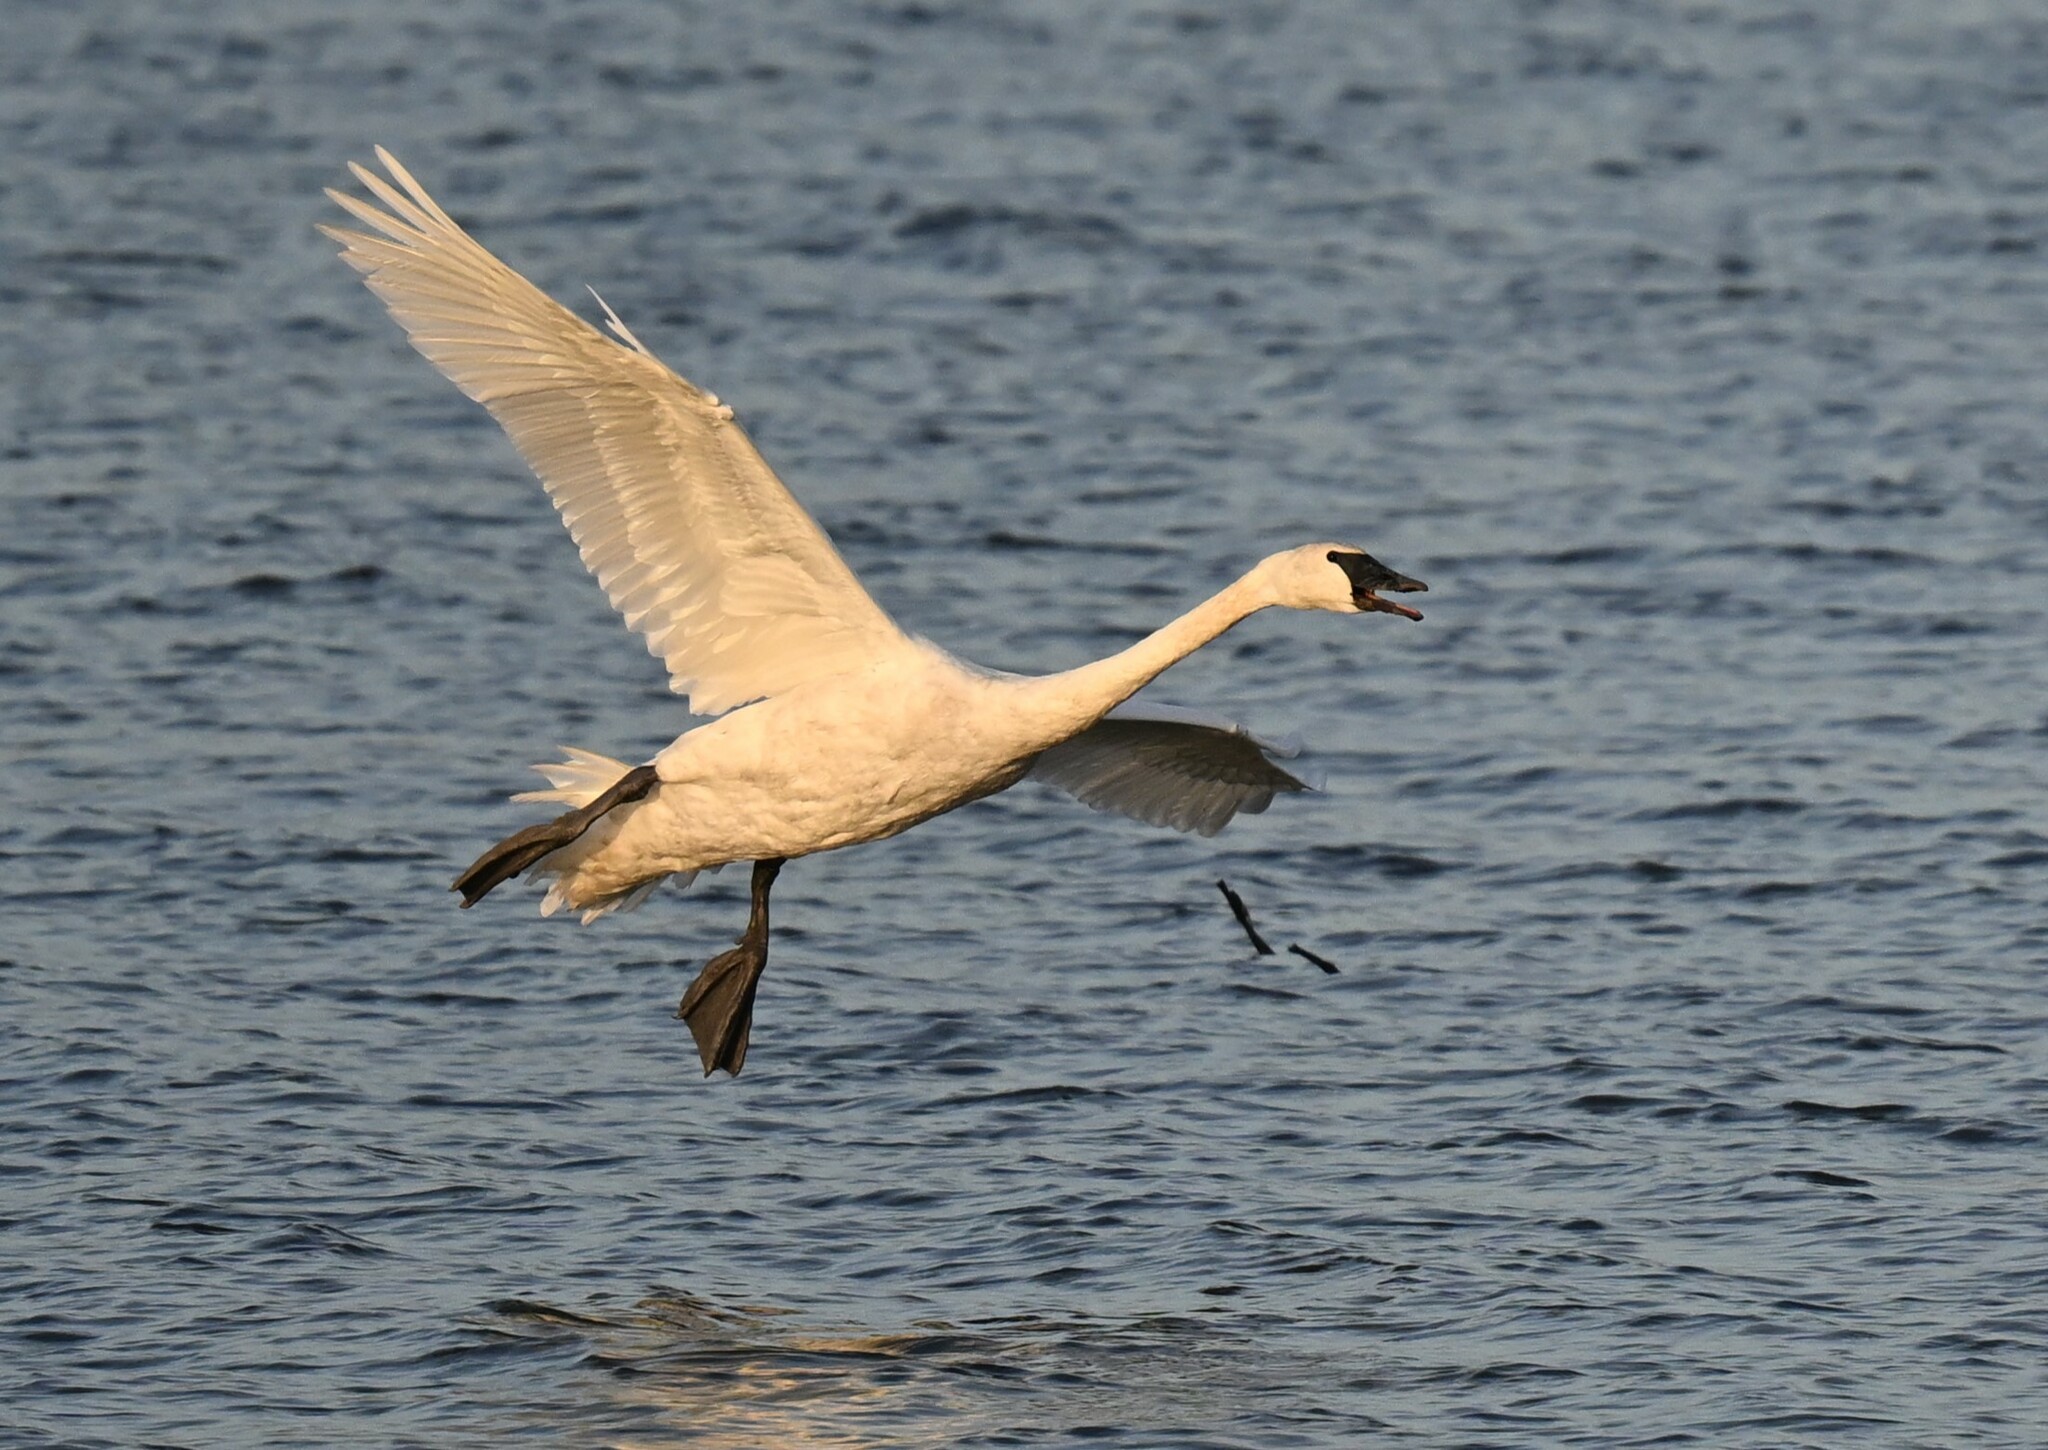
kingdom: Animalia
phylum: Chordata
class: Aves
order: Anseriformes
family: Anatidae
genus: Cygnus
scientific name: Cygnus buccinator
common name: Trumpeter swan
